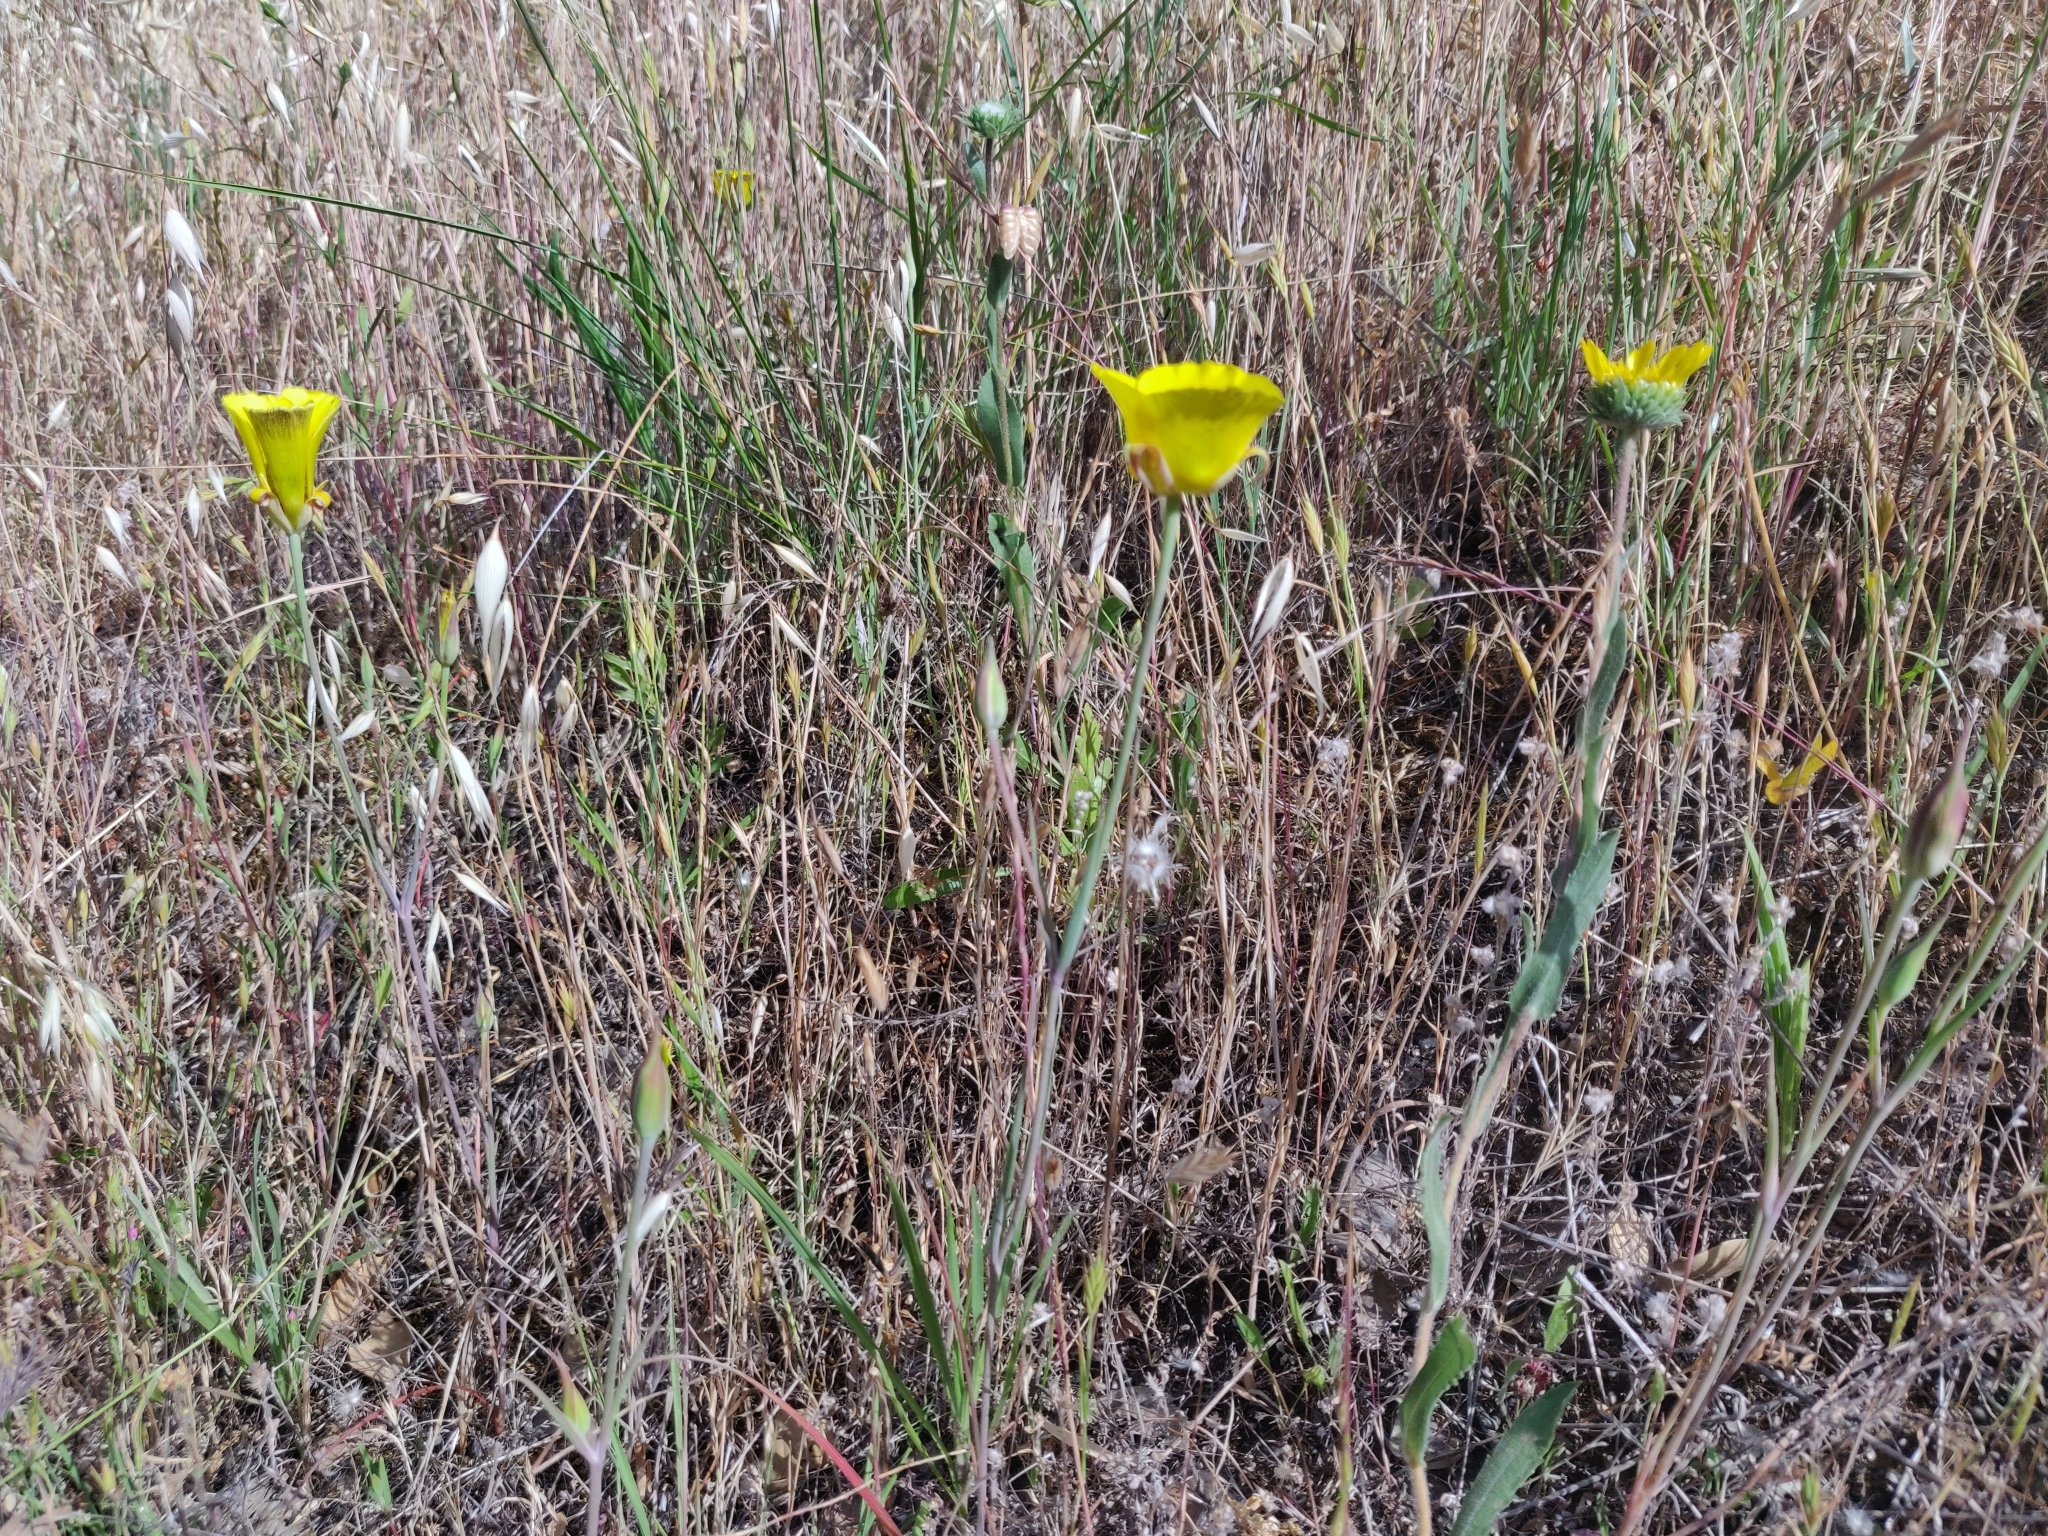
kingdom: Plantae
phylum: Tracheophyta
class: Liliopsida
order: Liliales
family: Liliaceae
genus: Calochortus
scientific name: Calochortus luteus
